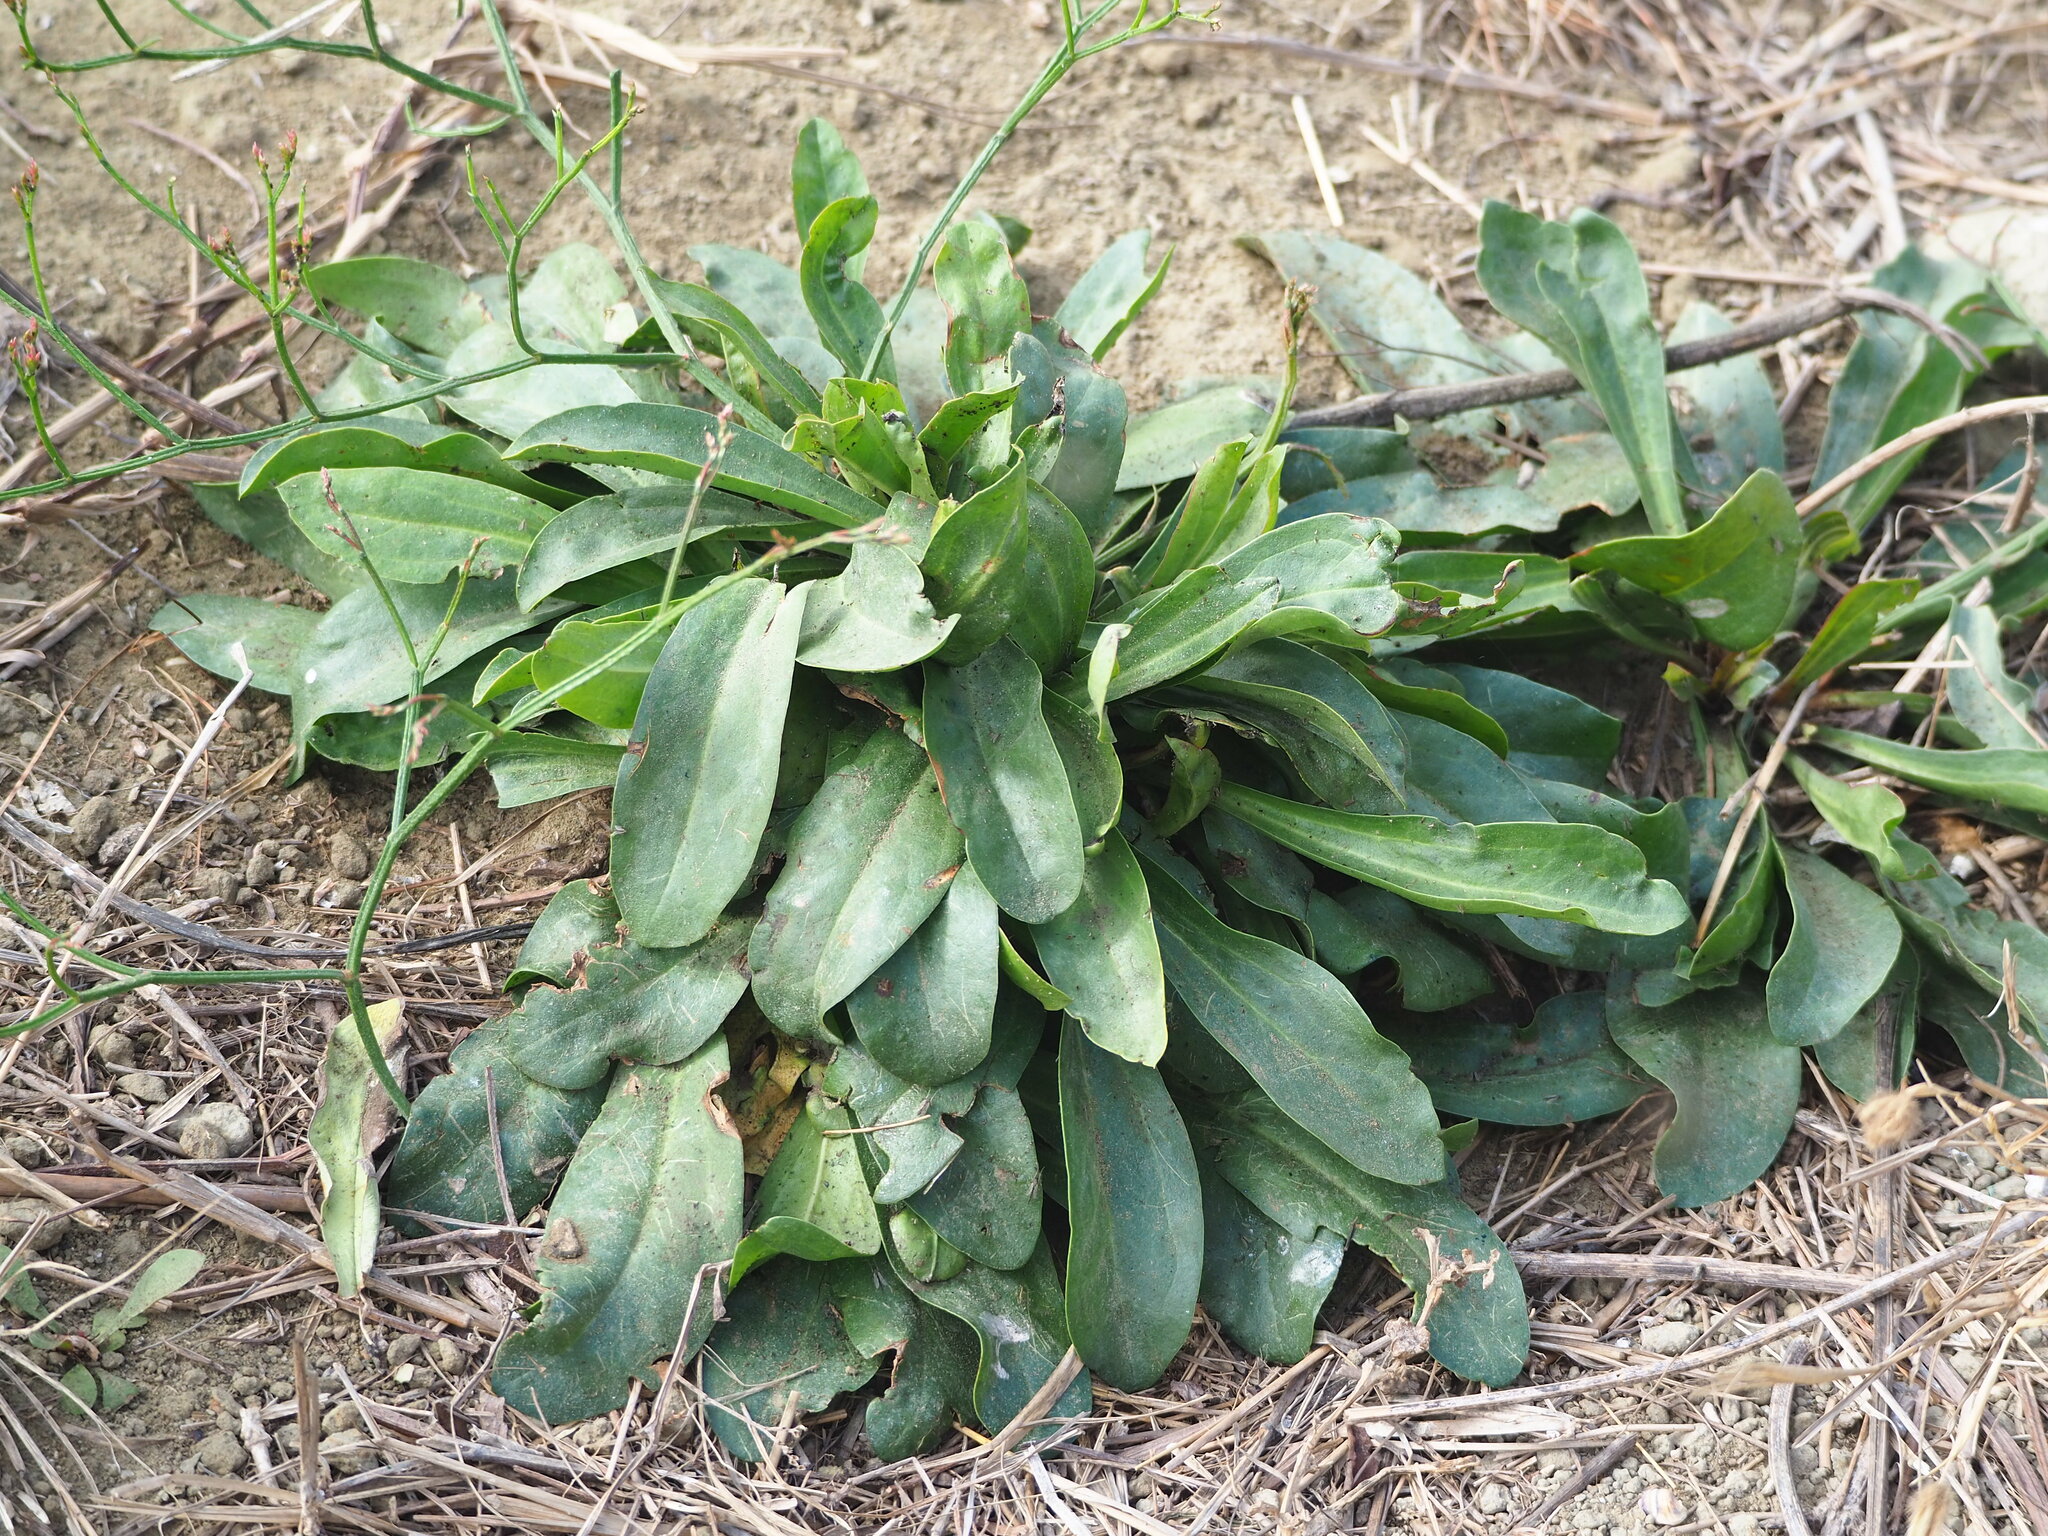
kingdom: Plantae
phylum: Tracheophyta
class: Magnoliopsida
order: Caryophyllales
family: Plumbaginaceae
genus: Limonium
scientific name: Limonium sinense
